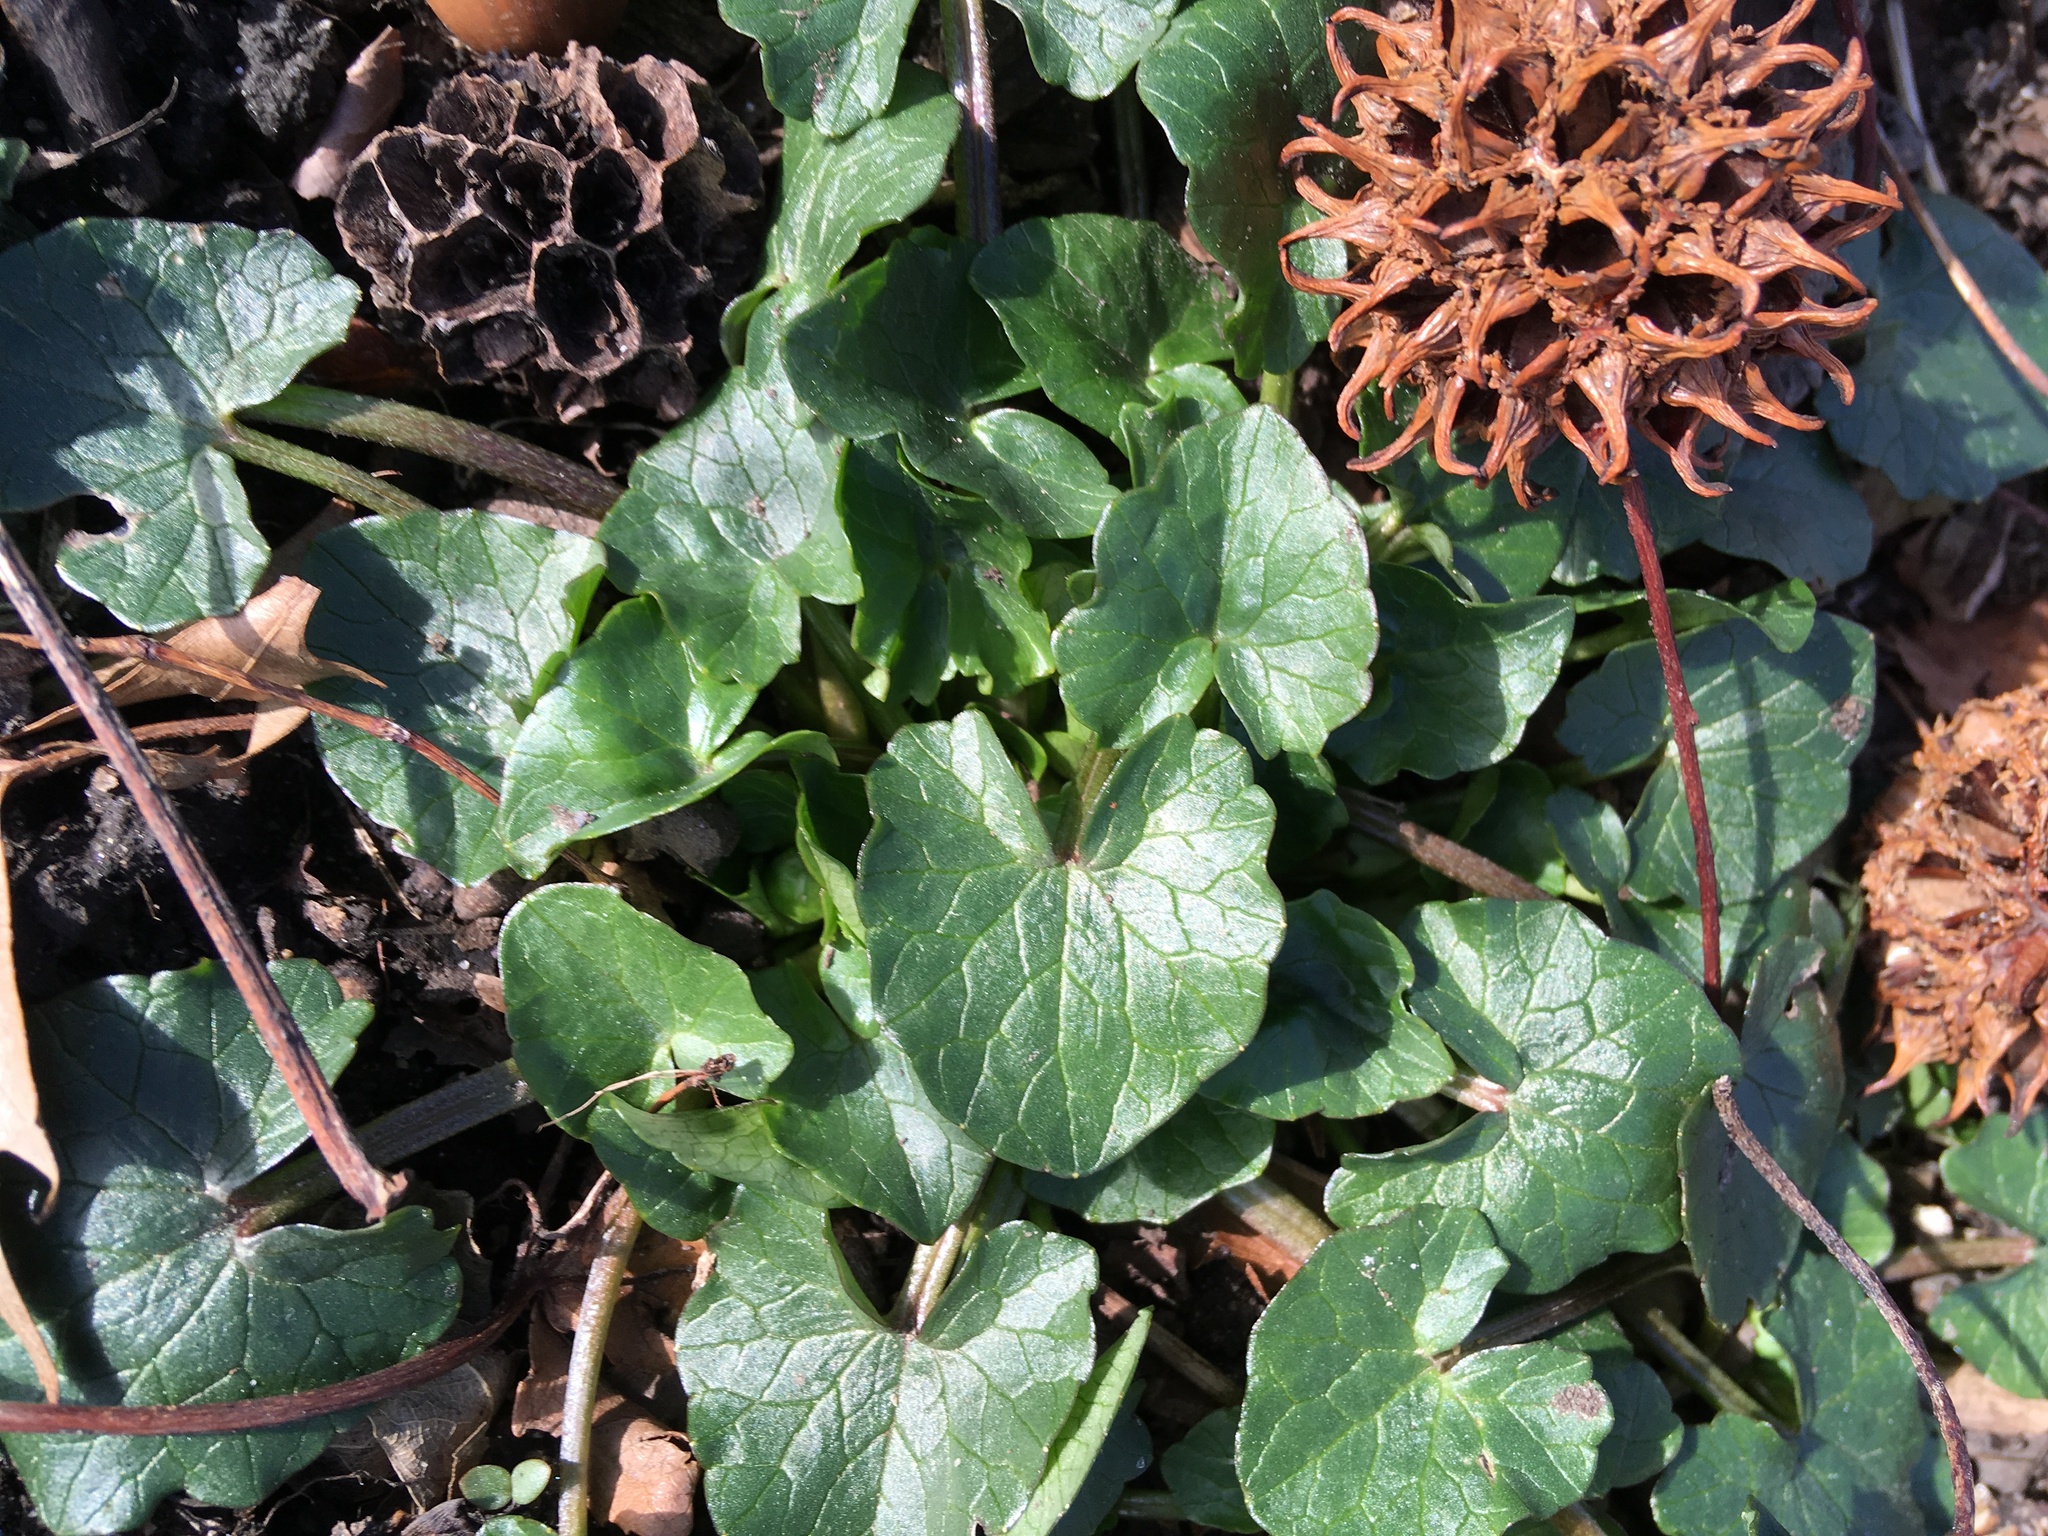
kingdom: Plantae
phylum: Tracheophyta
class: Magnoliopsida
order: Ranunculales
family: Ranunculaceae
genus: Ficaria
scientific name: Ficaria verna
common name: Lesser celandine
